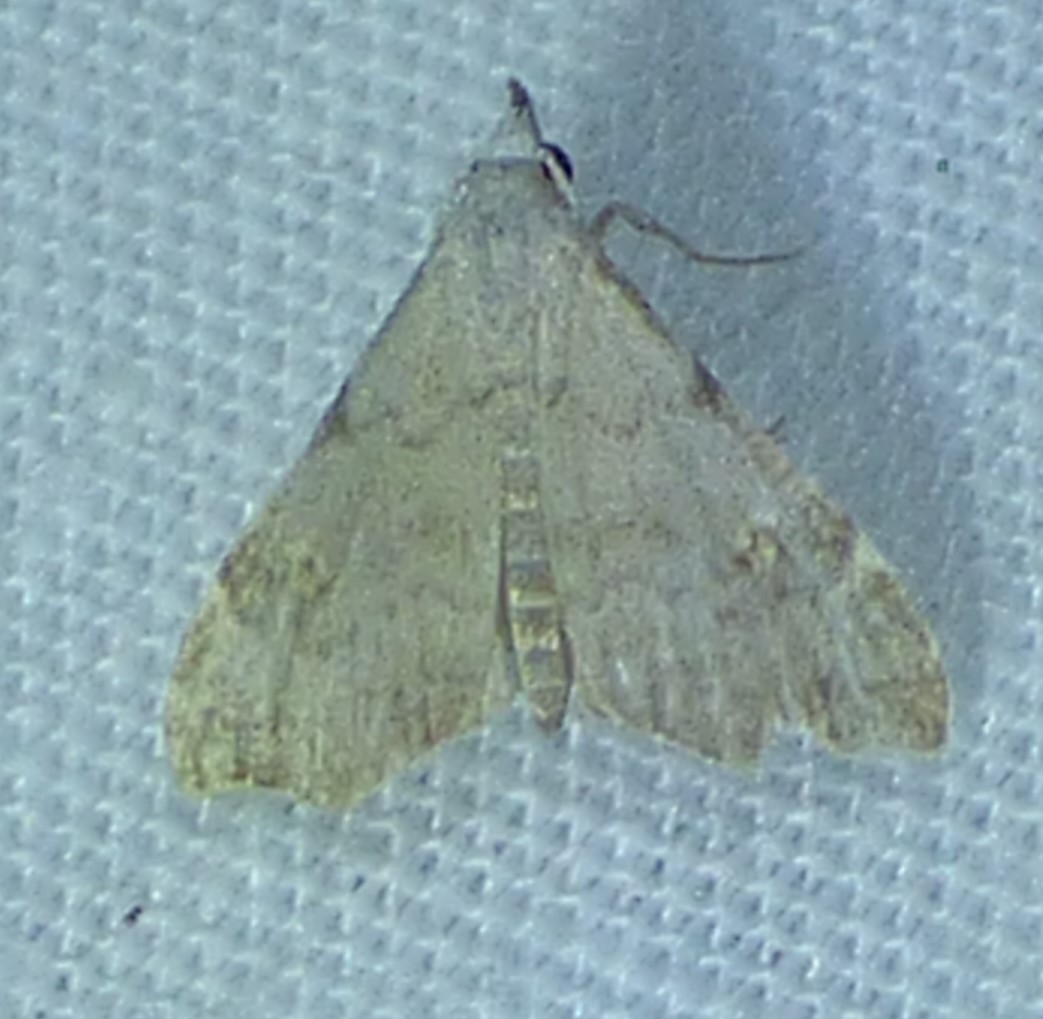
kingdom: Animalia
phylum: Arthropoda
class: Insecta
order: Lepidoptera
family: Erebidae
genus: Redectis
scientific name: Redectis pygmaea
